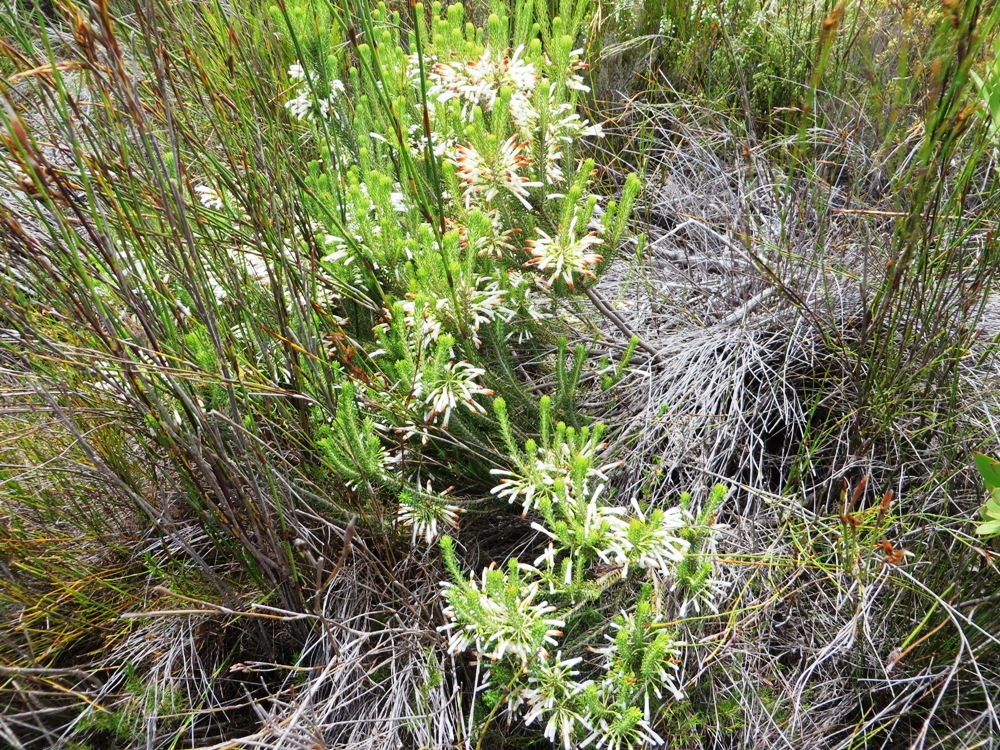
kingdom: Plantae
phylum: Tracheophyta
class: Magnoliopsida
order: Ericales
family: Ericaceae
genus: Erica
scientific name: Erica thomae
